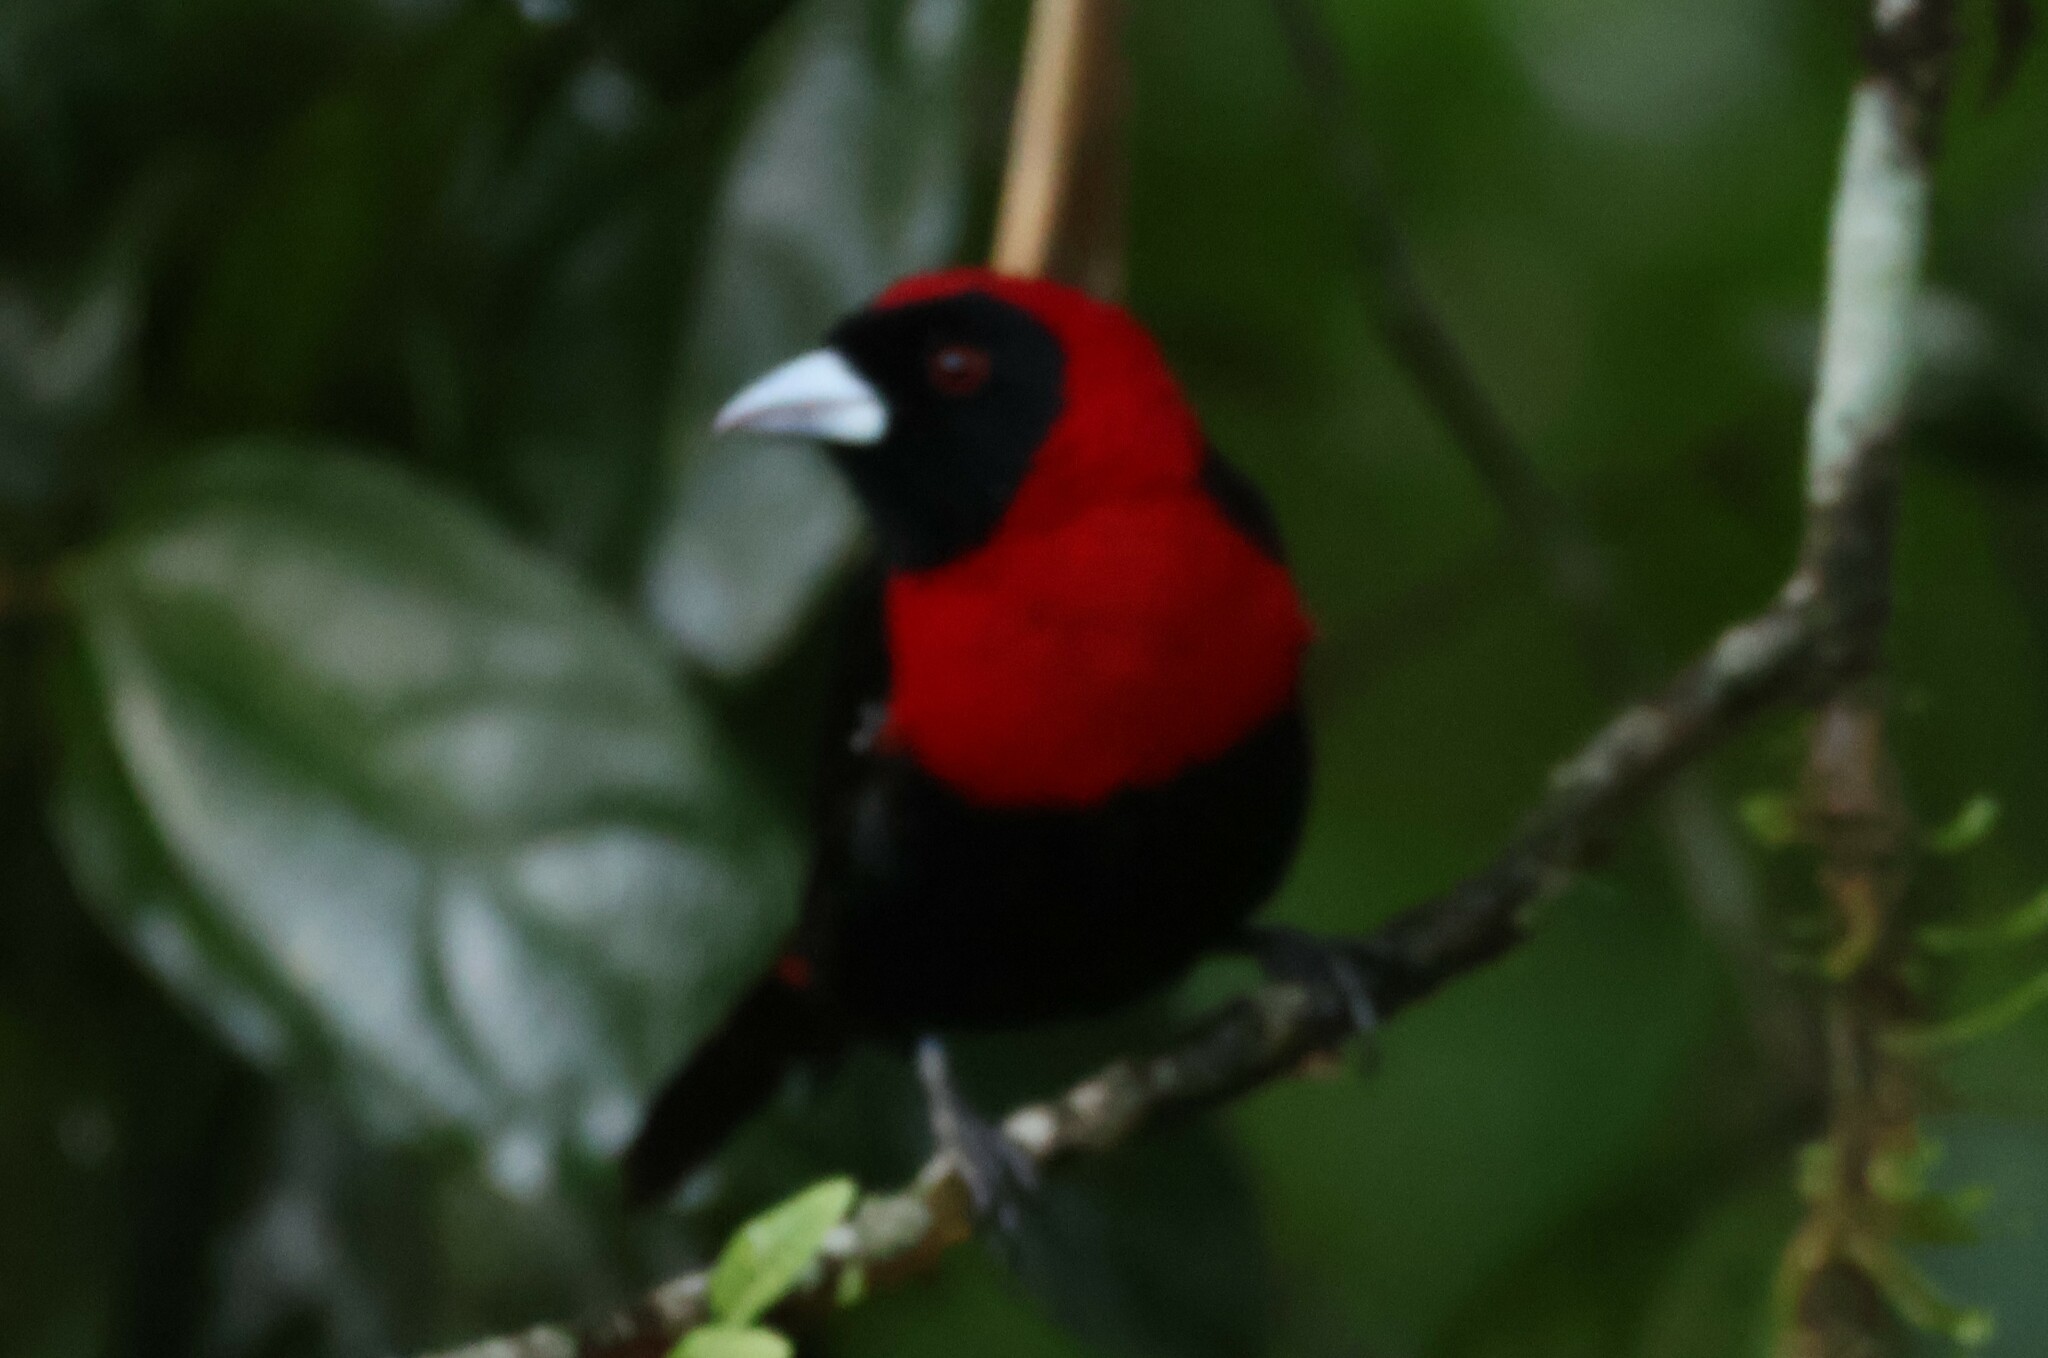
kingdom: Animalia
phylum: Chordata
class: Aves
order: Passeriformes
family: Thraupidae
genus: Ramphocelus
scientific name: Ramphocelus sanguinolentus
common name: Crimson-collared tanager
